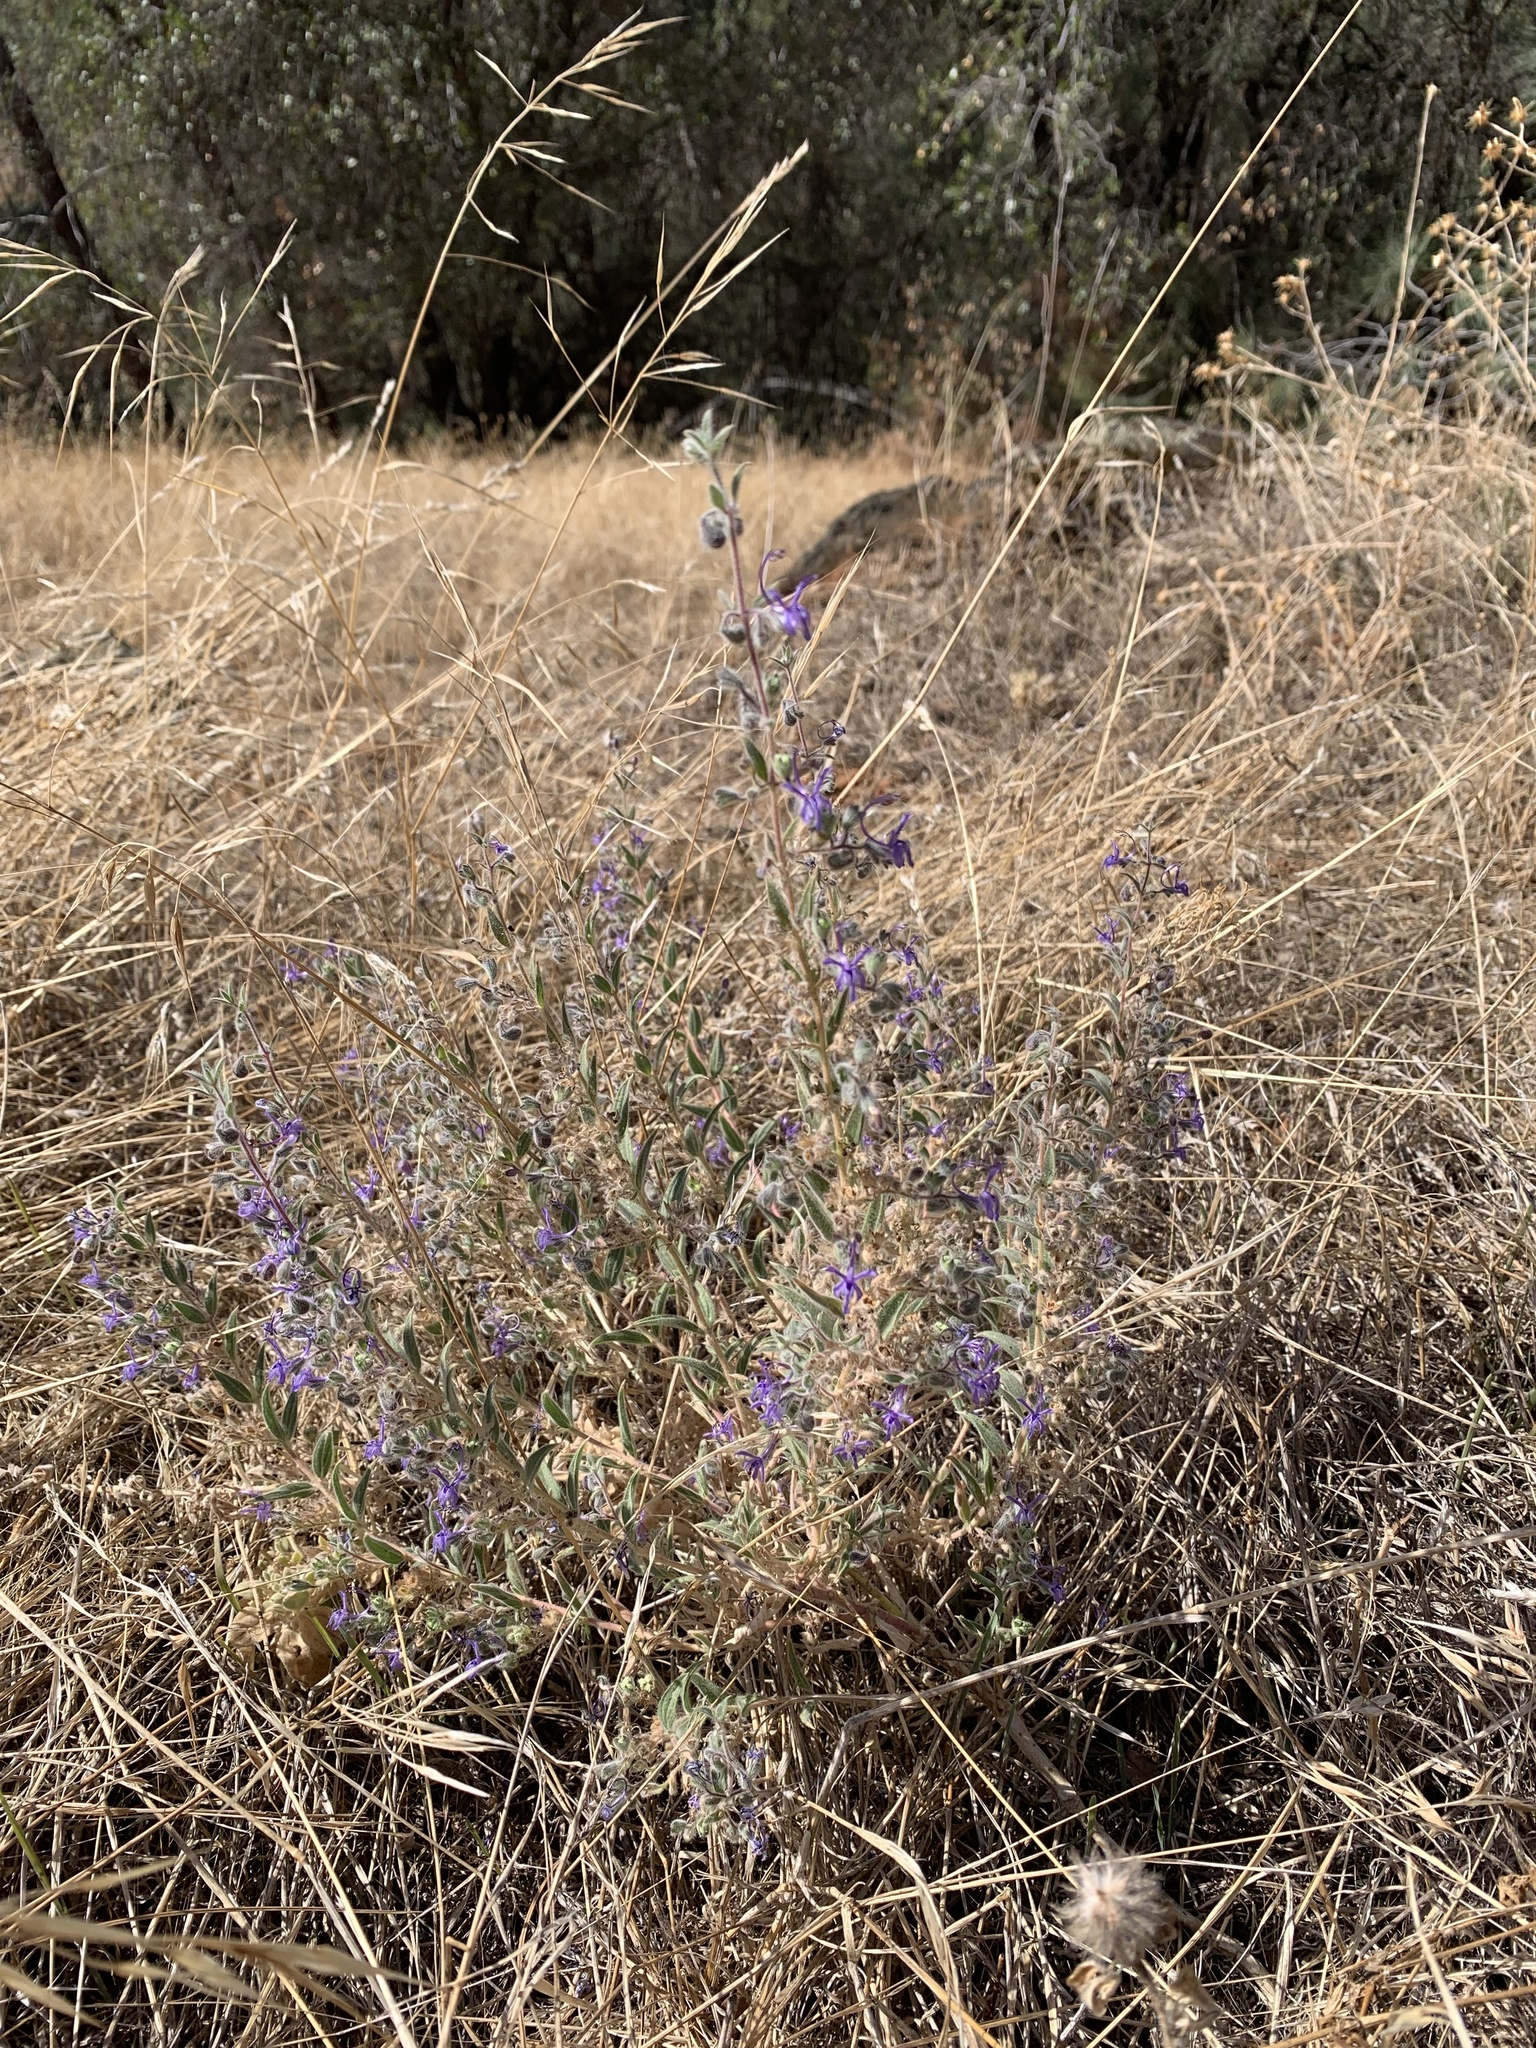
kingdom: Plantae
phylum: Tracheophyta
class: Magnoliopsida
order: Lamiales
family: Lamiaceae
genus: Trichostema
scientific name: Trichostema lanceolatum
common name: Vinegar-weed
